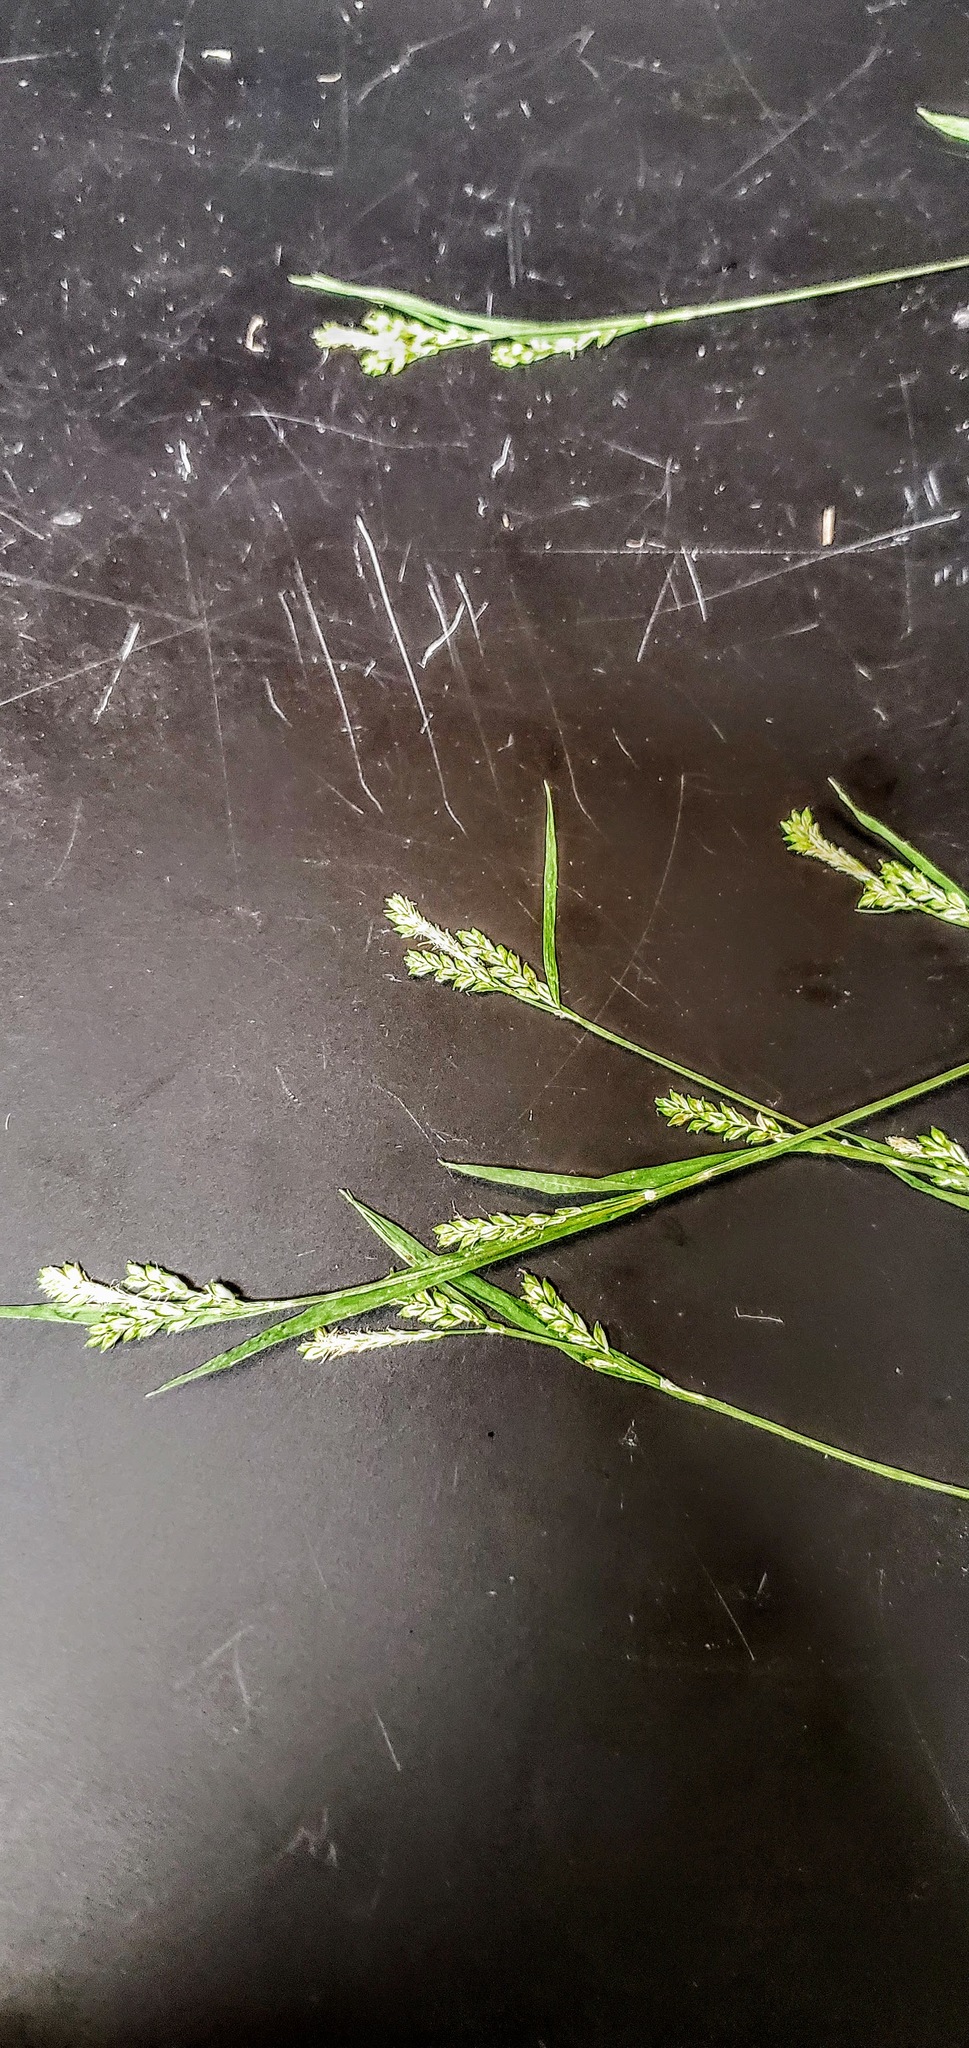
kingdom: Plantae
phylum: Tracheophyta
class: Liliopsida
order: Poales
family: Cyperaceae
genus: Carex
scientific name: Carex leptonervia
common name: Few-nerved wood sedge
